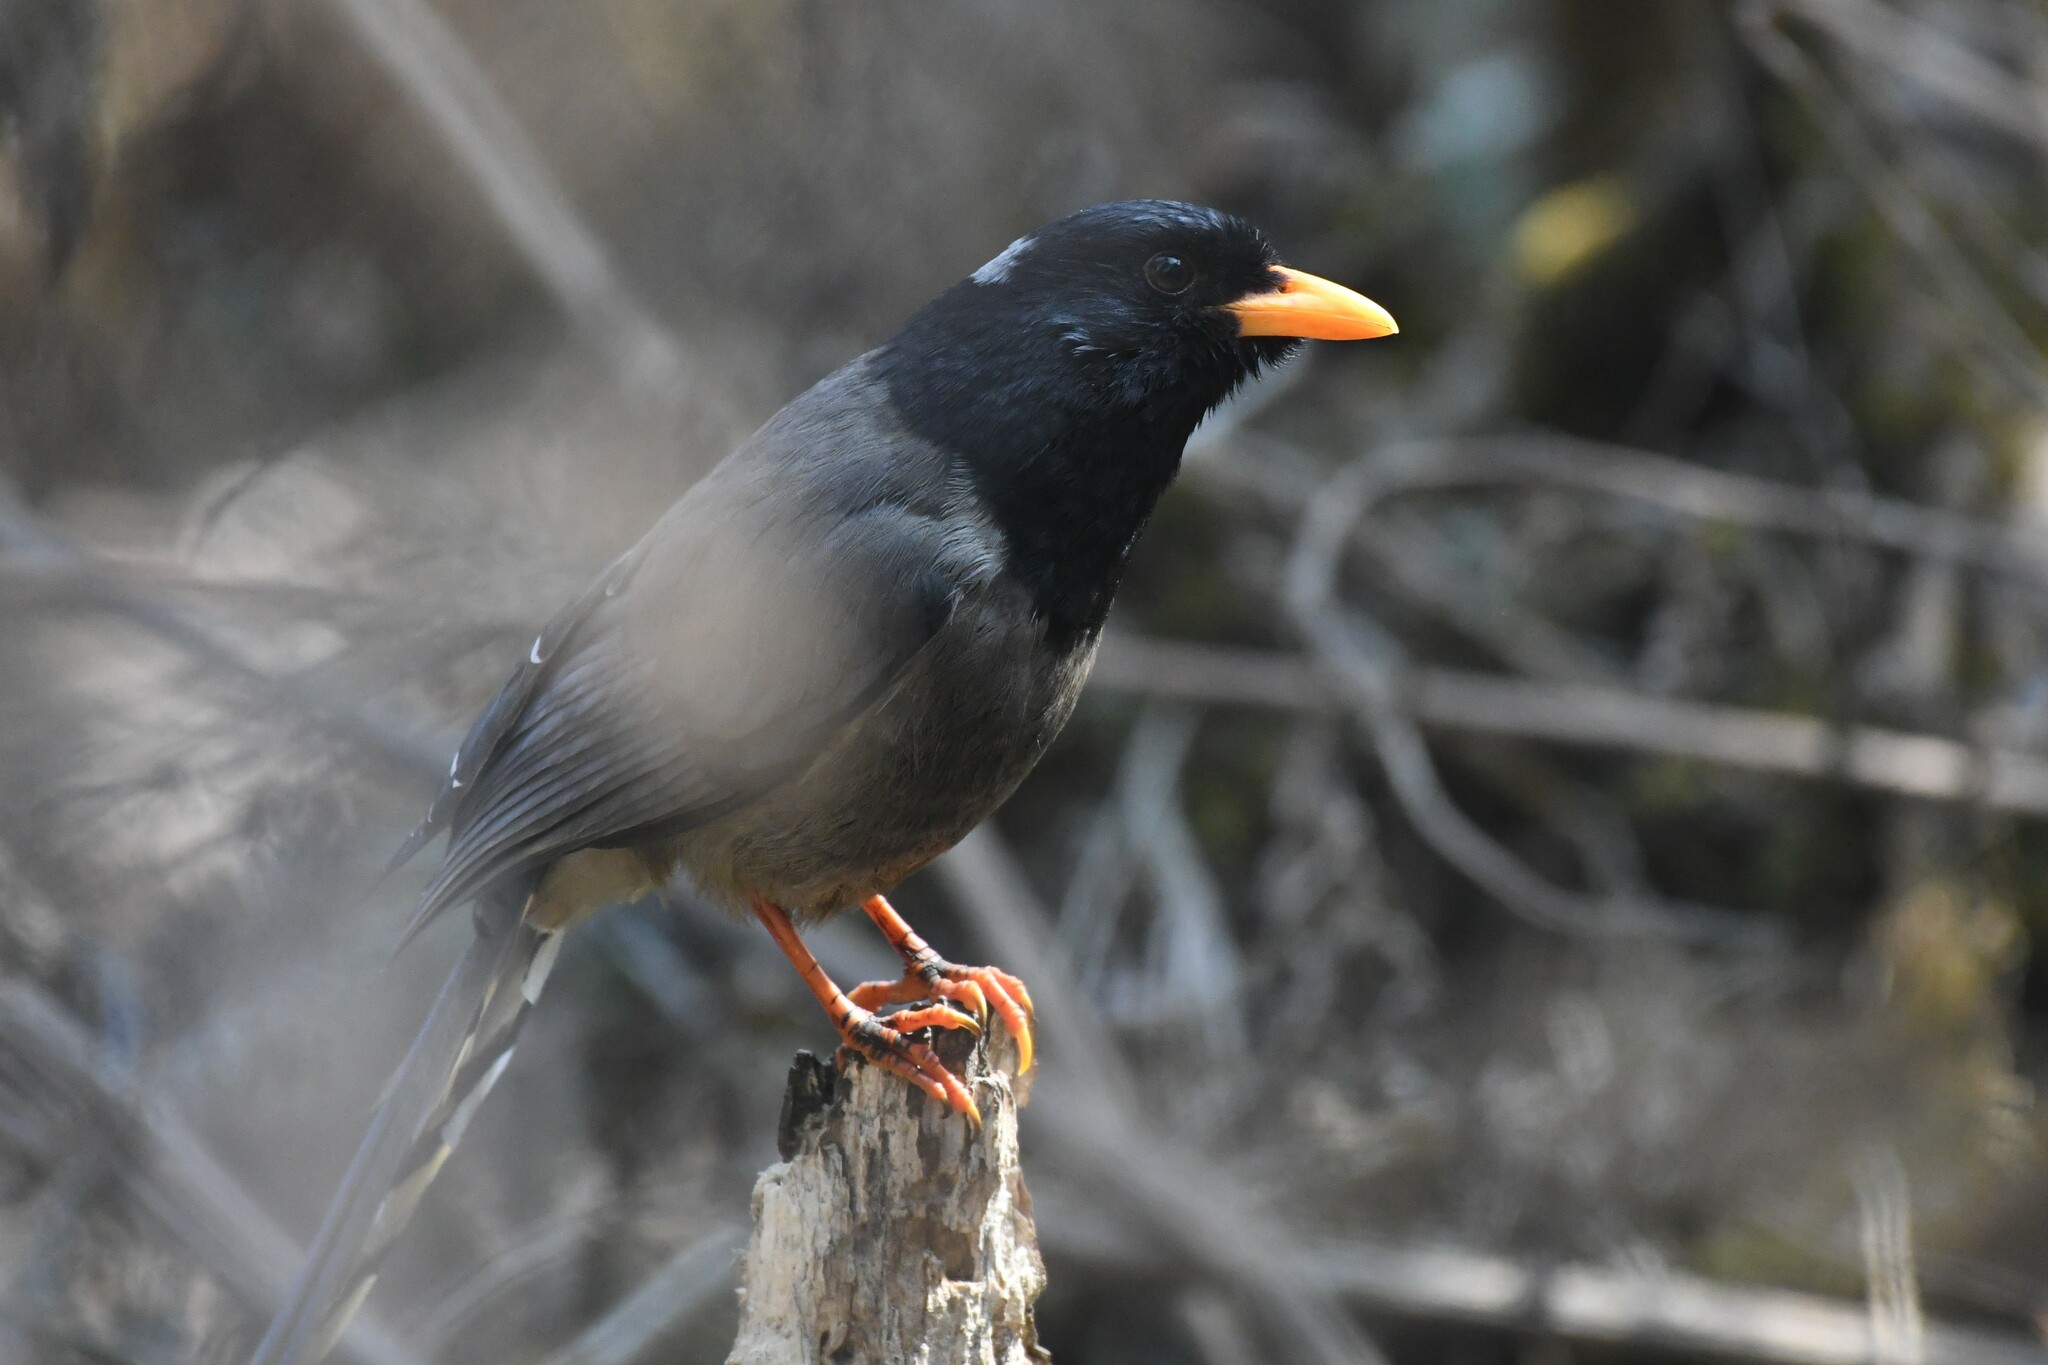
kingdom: Animalia
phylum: Chordata
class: Aves
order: Passeriformes
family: Corvidae
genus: Urocissa
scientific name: Urocissa flavirostris
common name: Yellow-billed blue magpie
